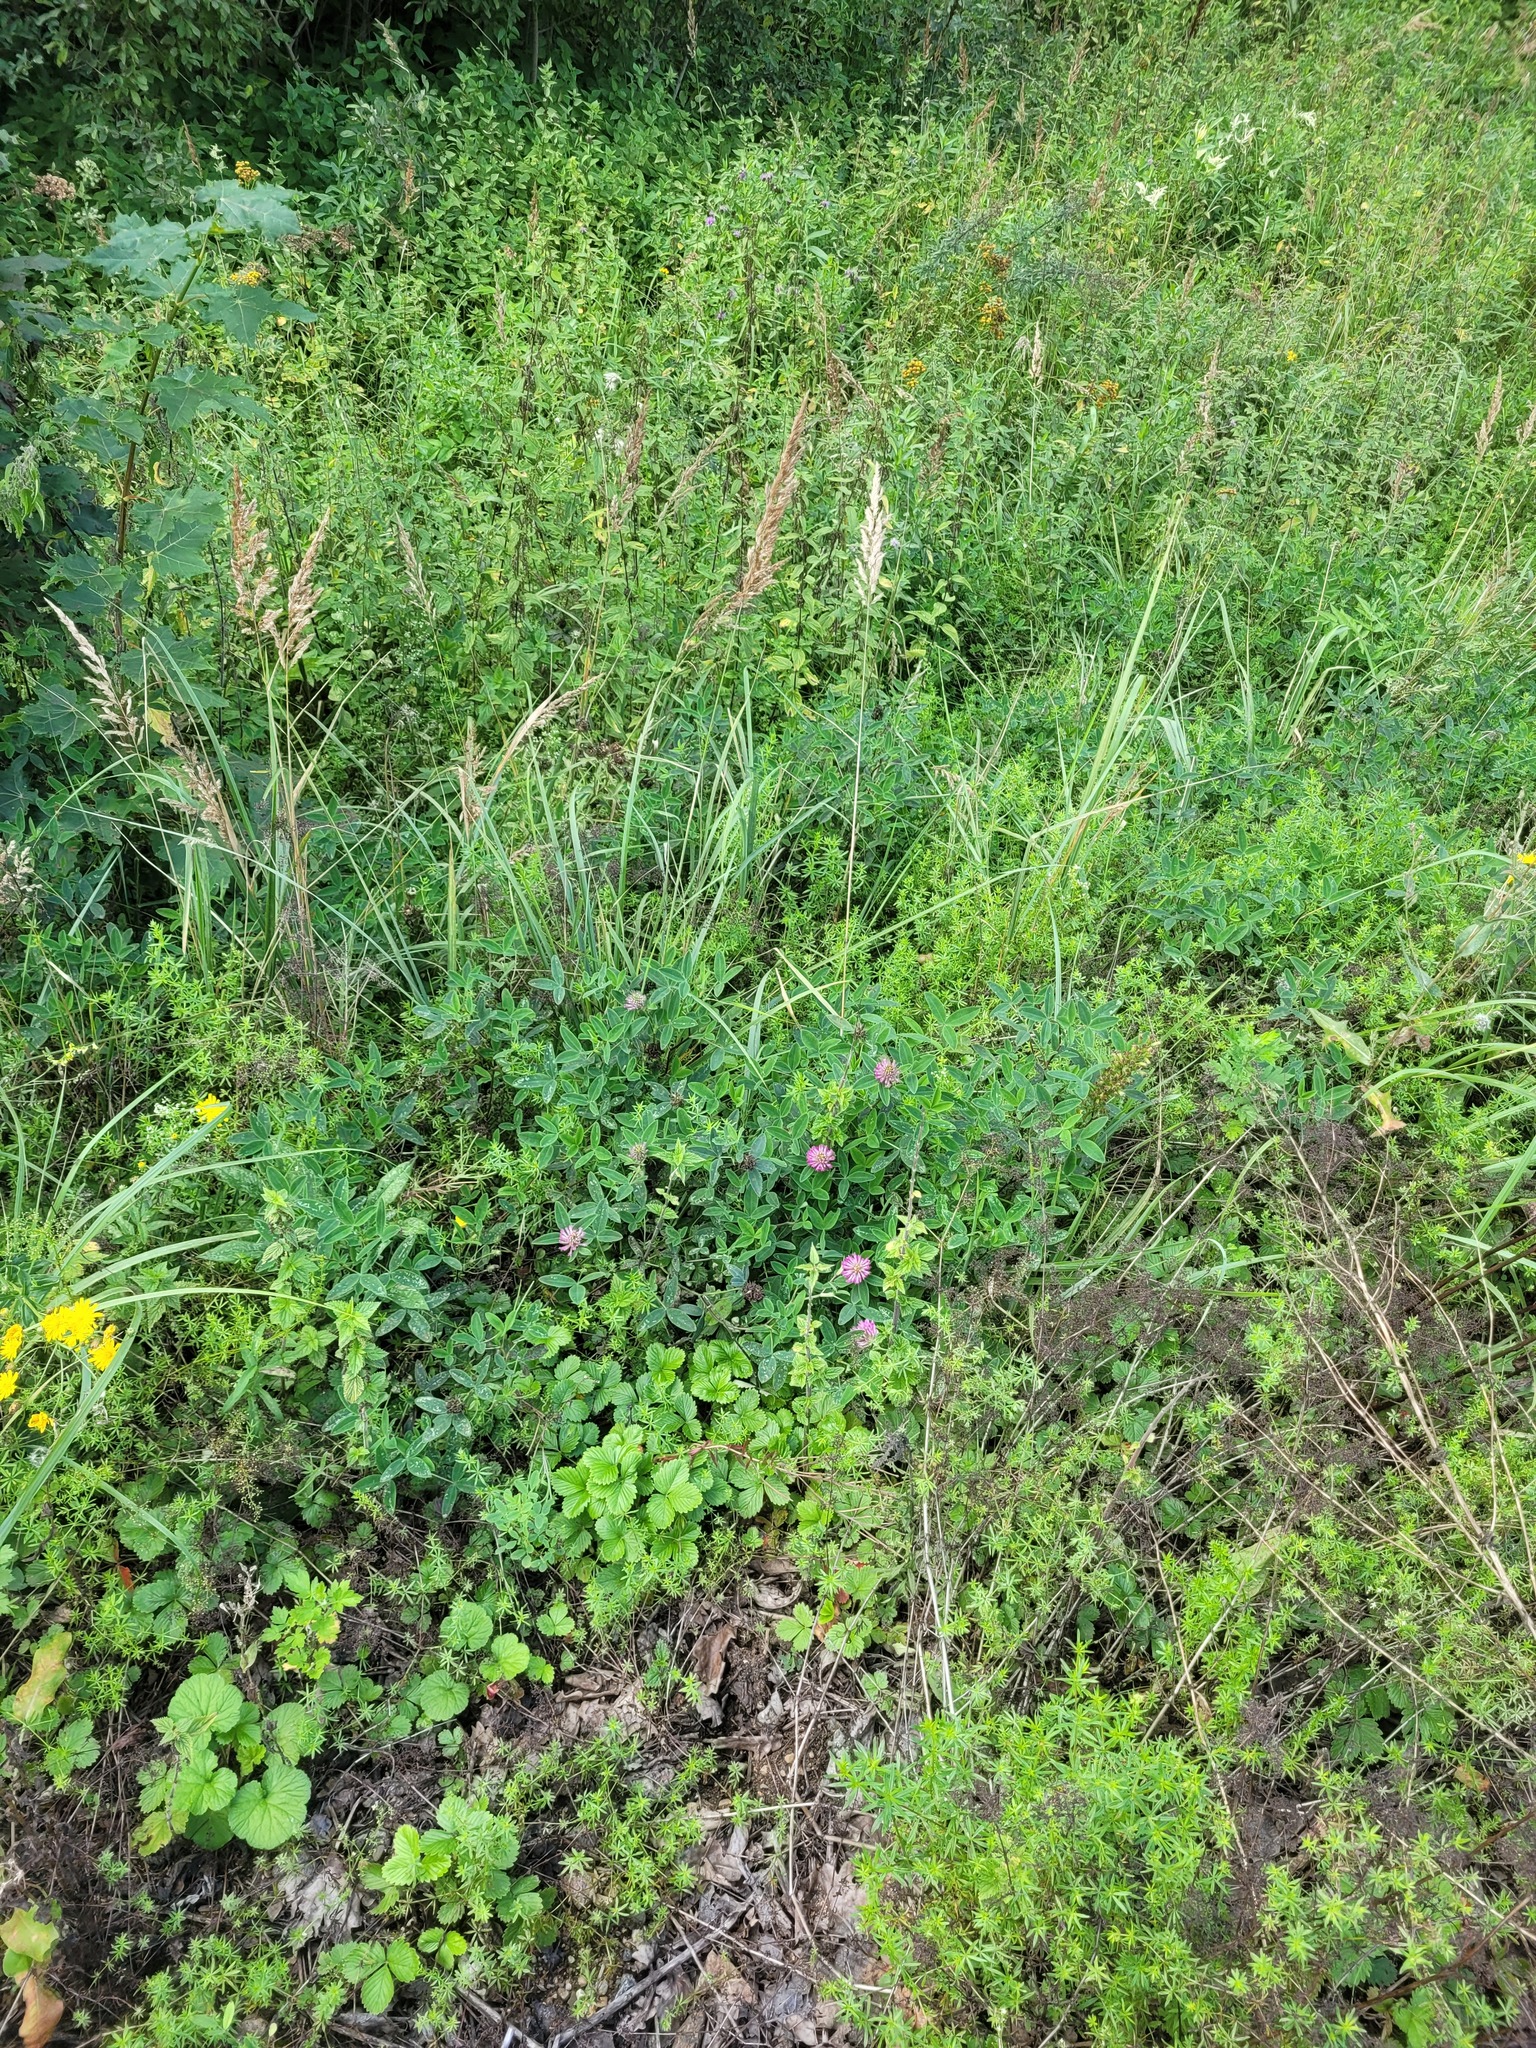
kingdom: Plantae
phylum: Tracheophyta
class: Magnoliopsida
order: Fabales
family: Fabaceae
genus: Trifolium
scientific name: Trifolium medium
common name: Zigzag clover
